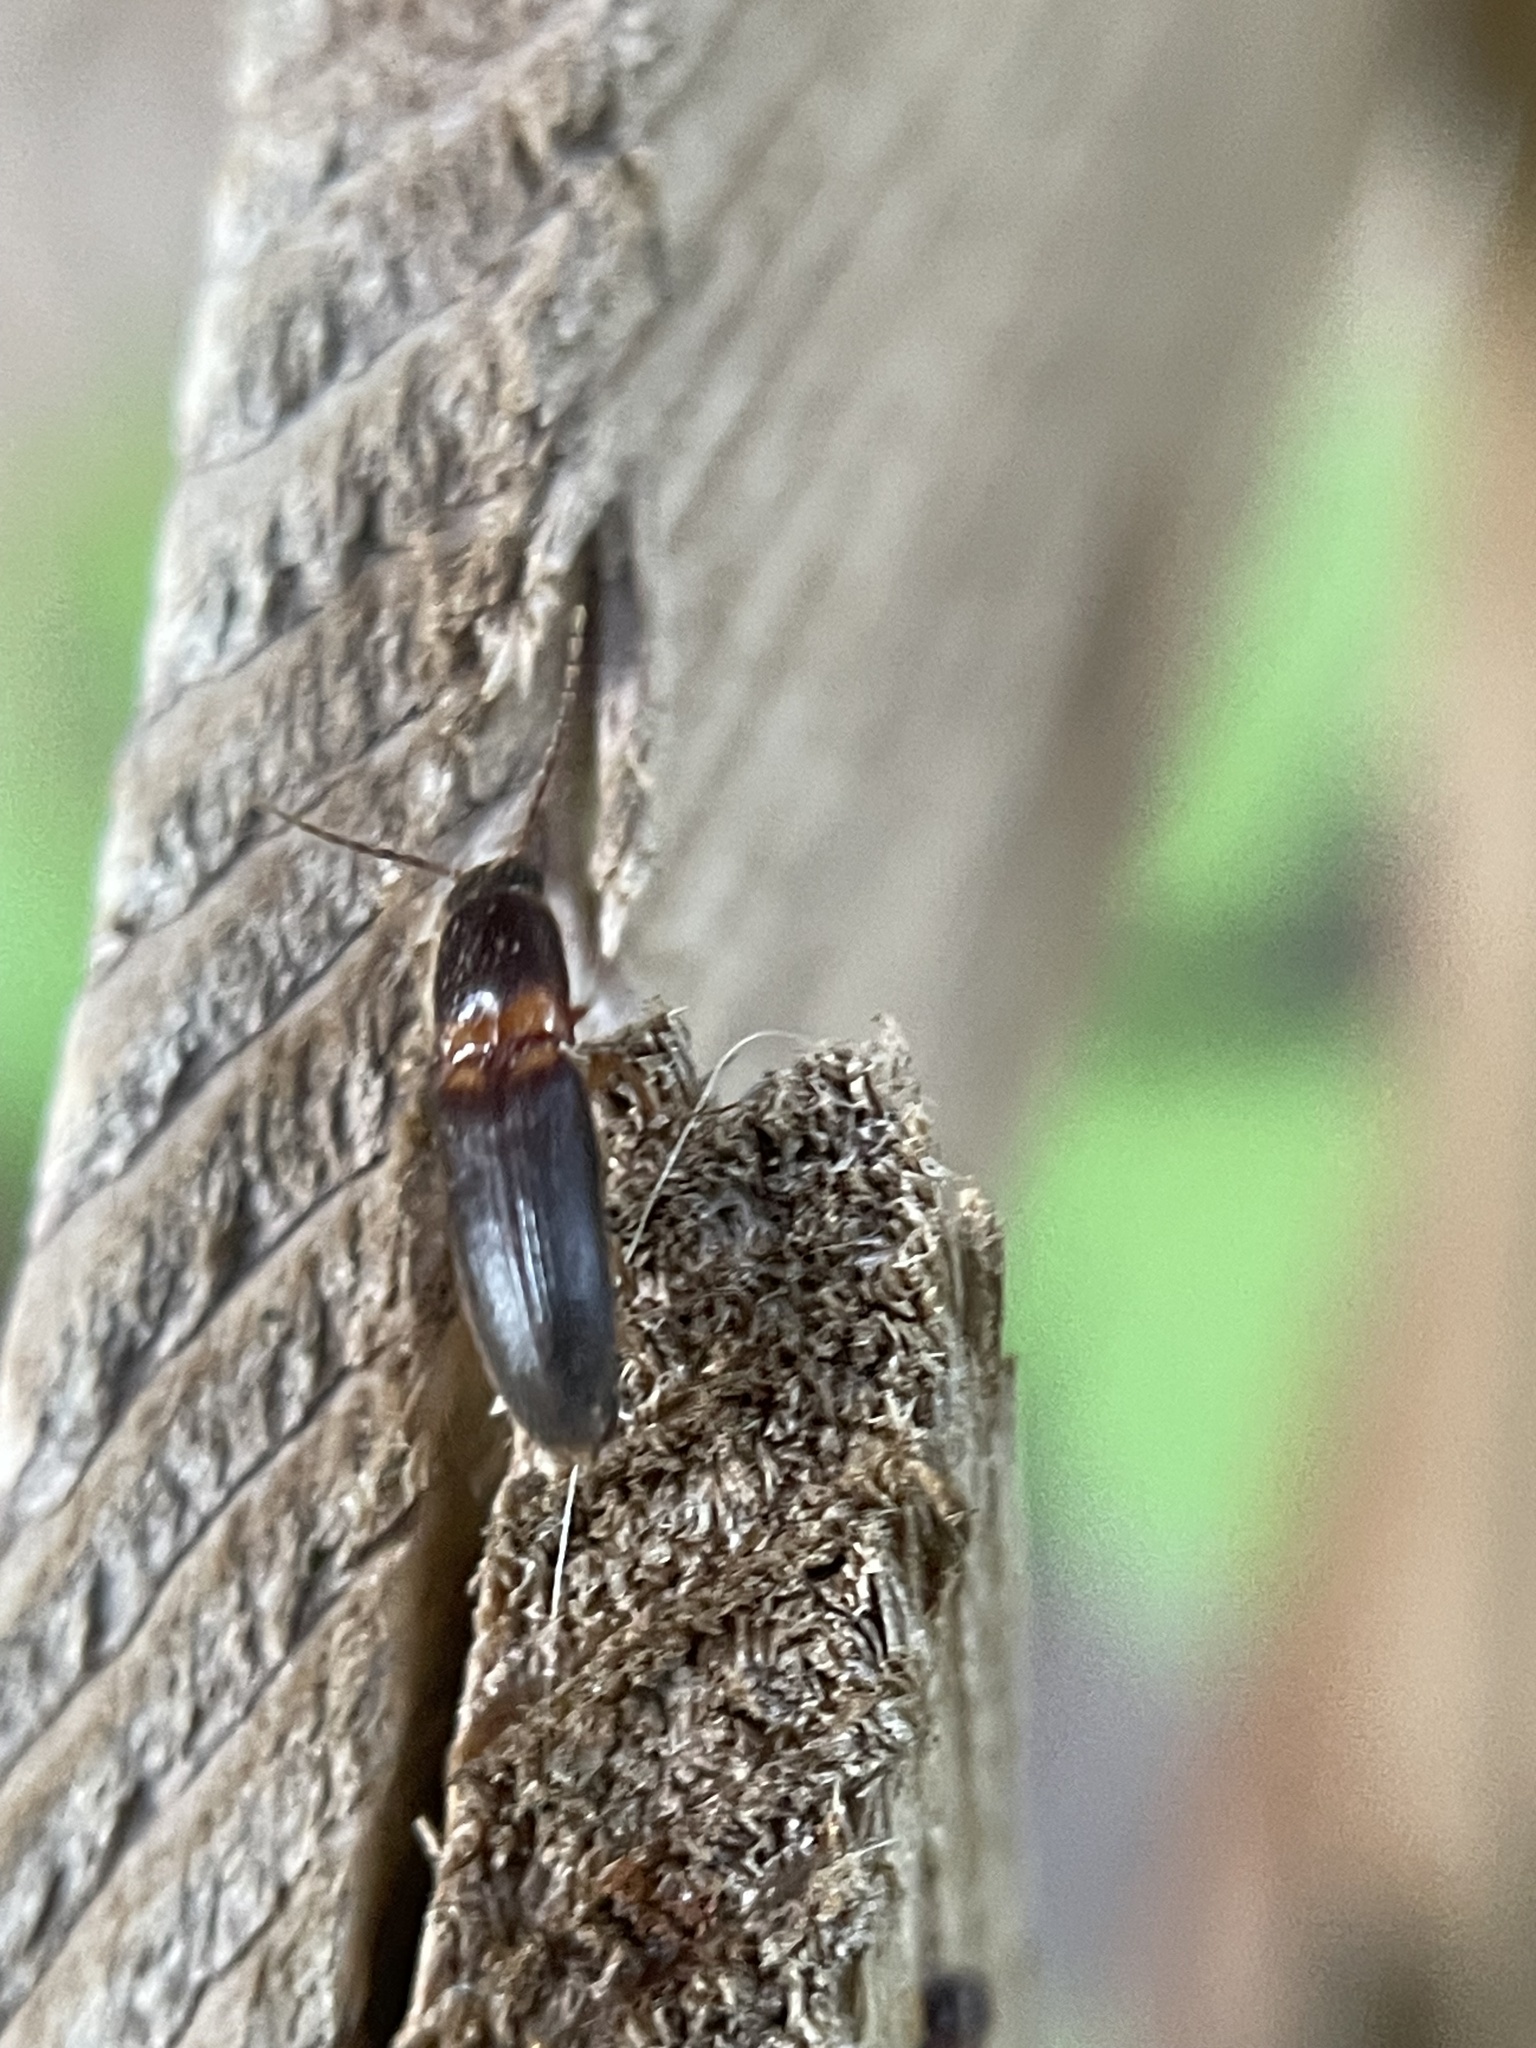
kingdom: Animalia
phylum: Arthropoda
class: Insecta
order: Coleoptera
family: Elateridae
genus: Megapenthes
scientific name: Megapenthes
